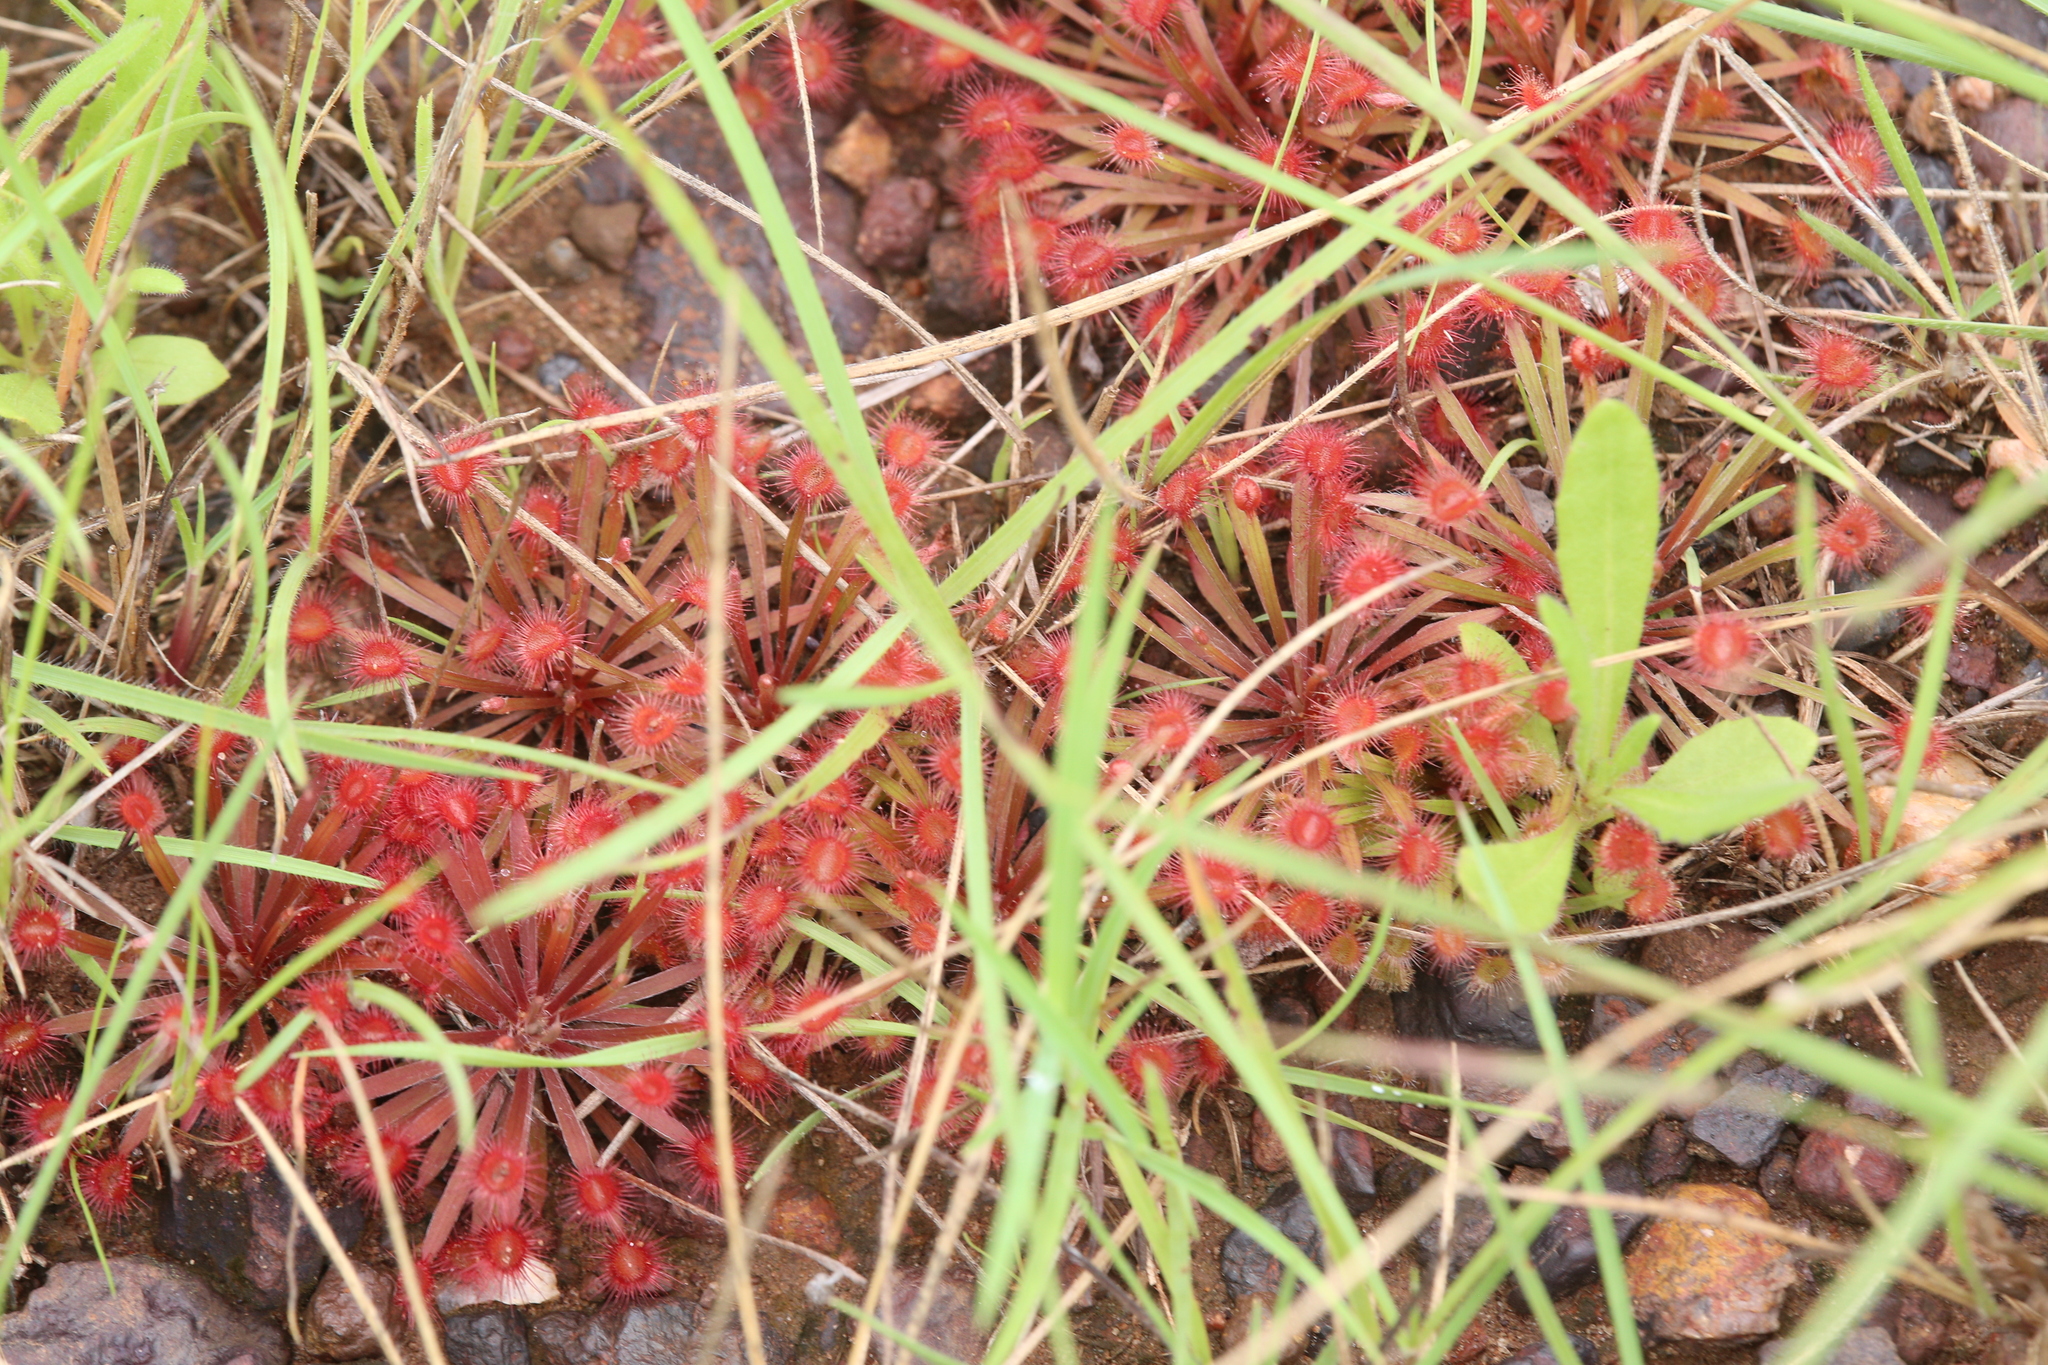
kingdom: Plantae
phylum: Tracheophyta
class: Magnoliopsida
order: Caryophyllales
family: Droseraceae
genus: Drosera
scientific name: Drosera dilatatopetiolaris
